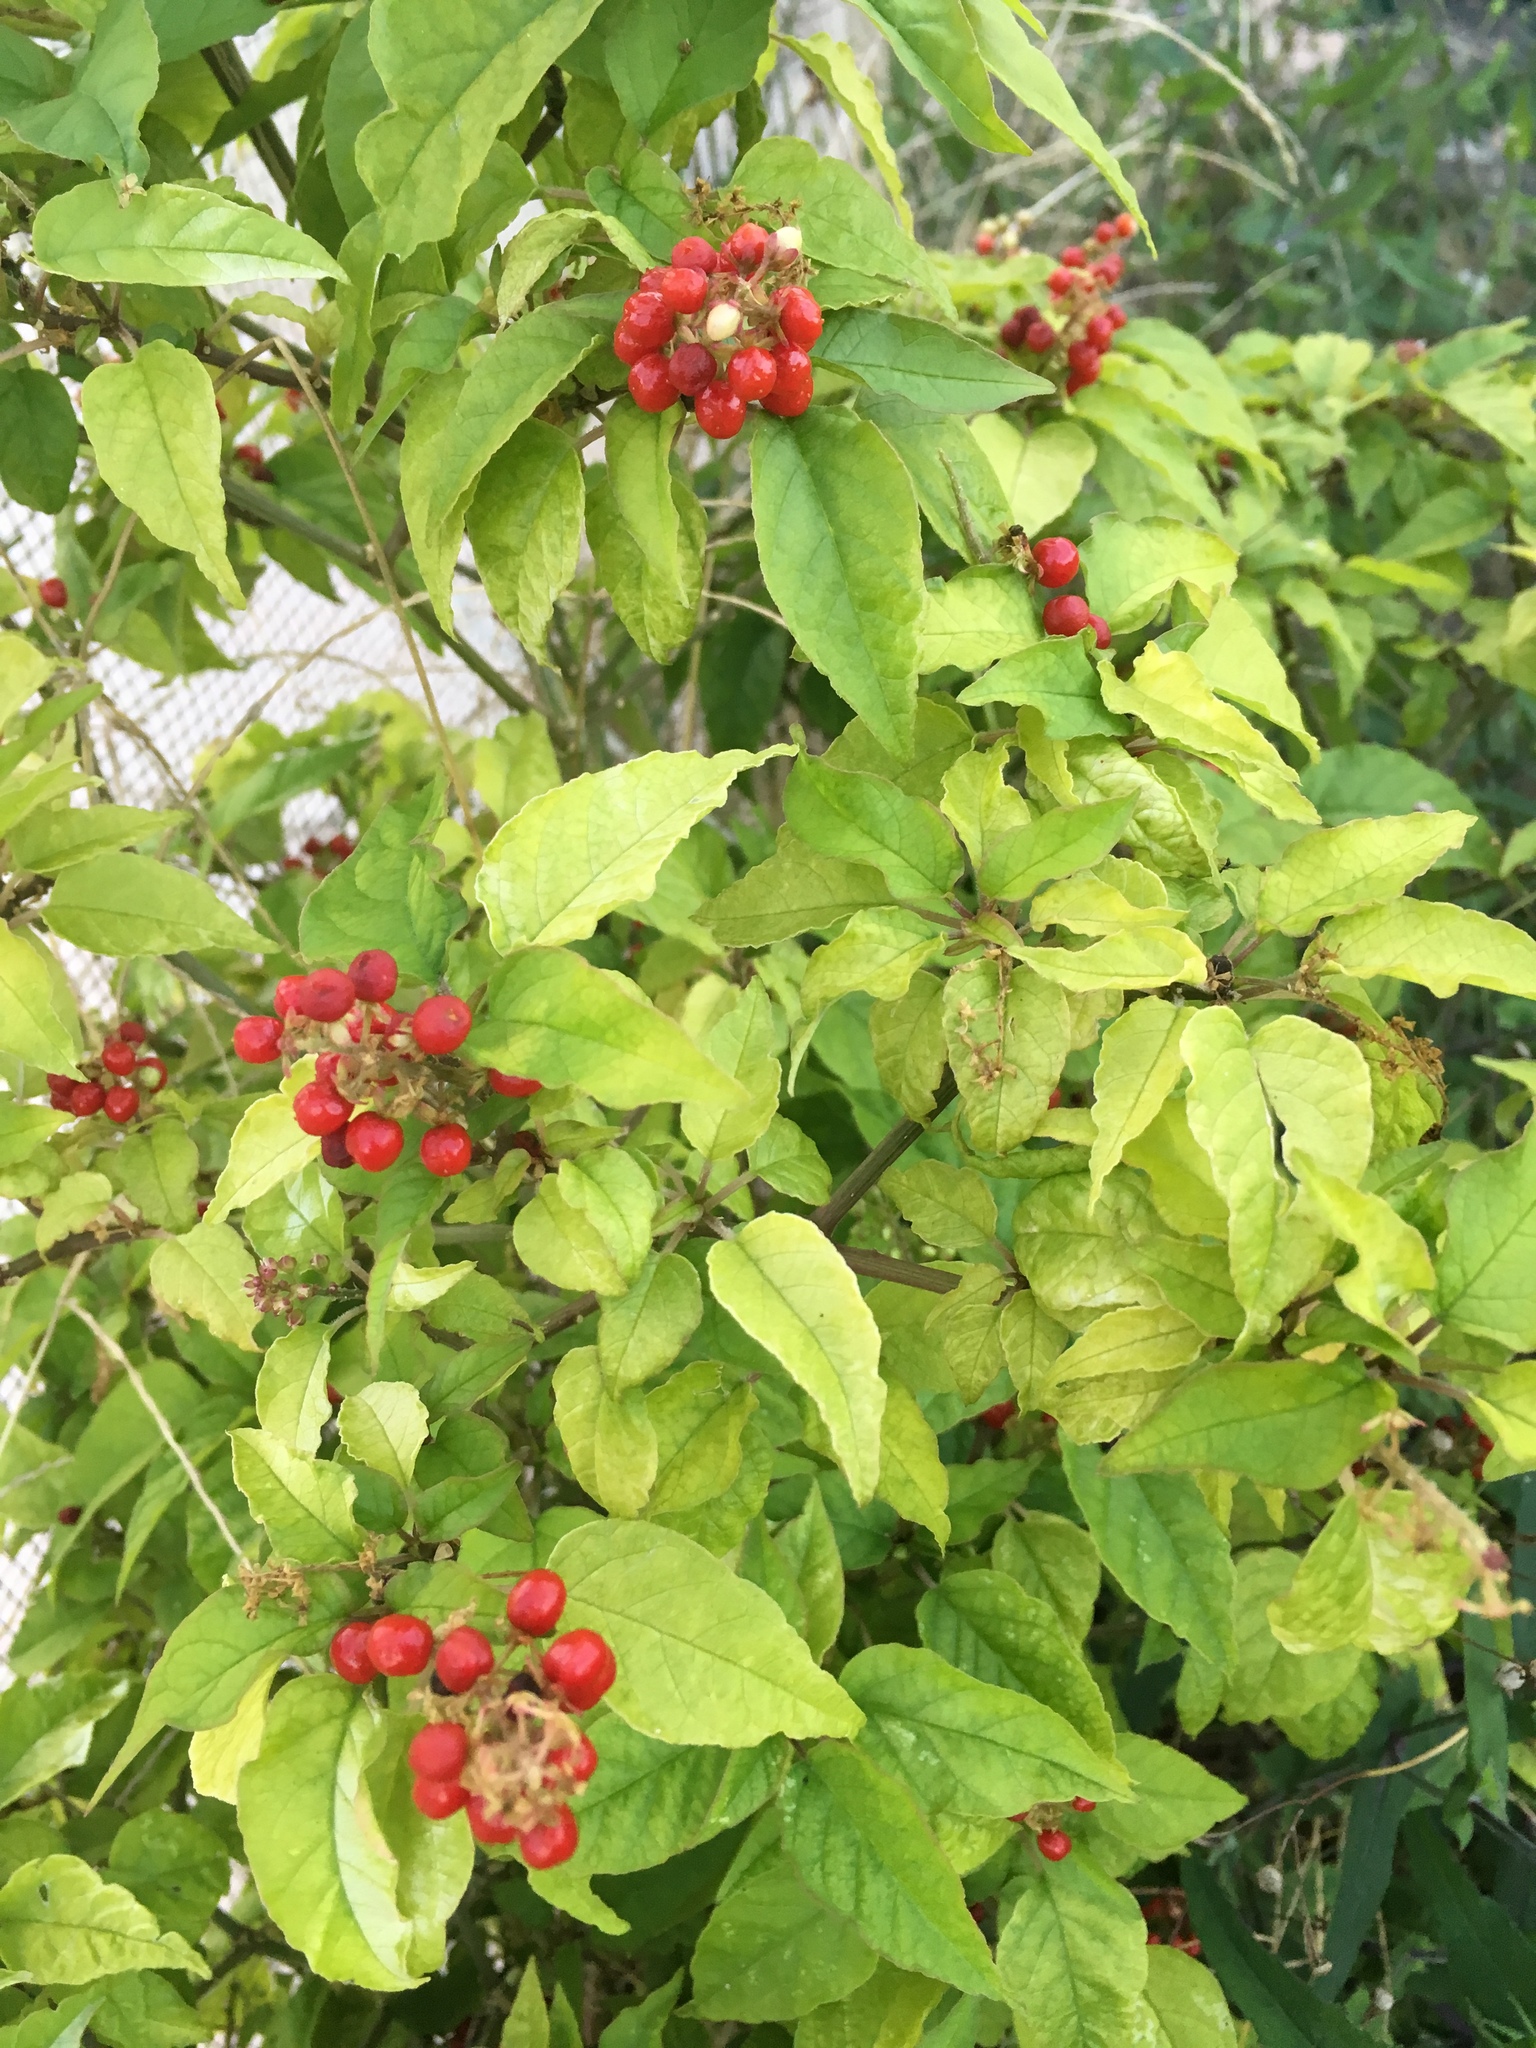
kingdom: Plantae
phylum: Tracheophyta
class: Magnoliopsida
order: Caryophyllales
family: Phytolaccaceae
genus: Rivina
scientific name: Rivina humilis
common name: Rougeplant
